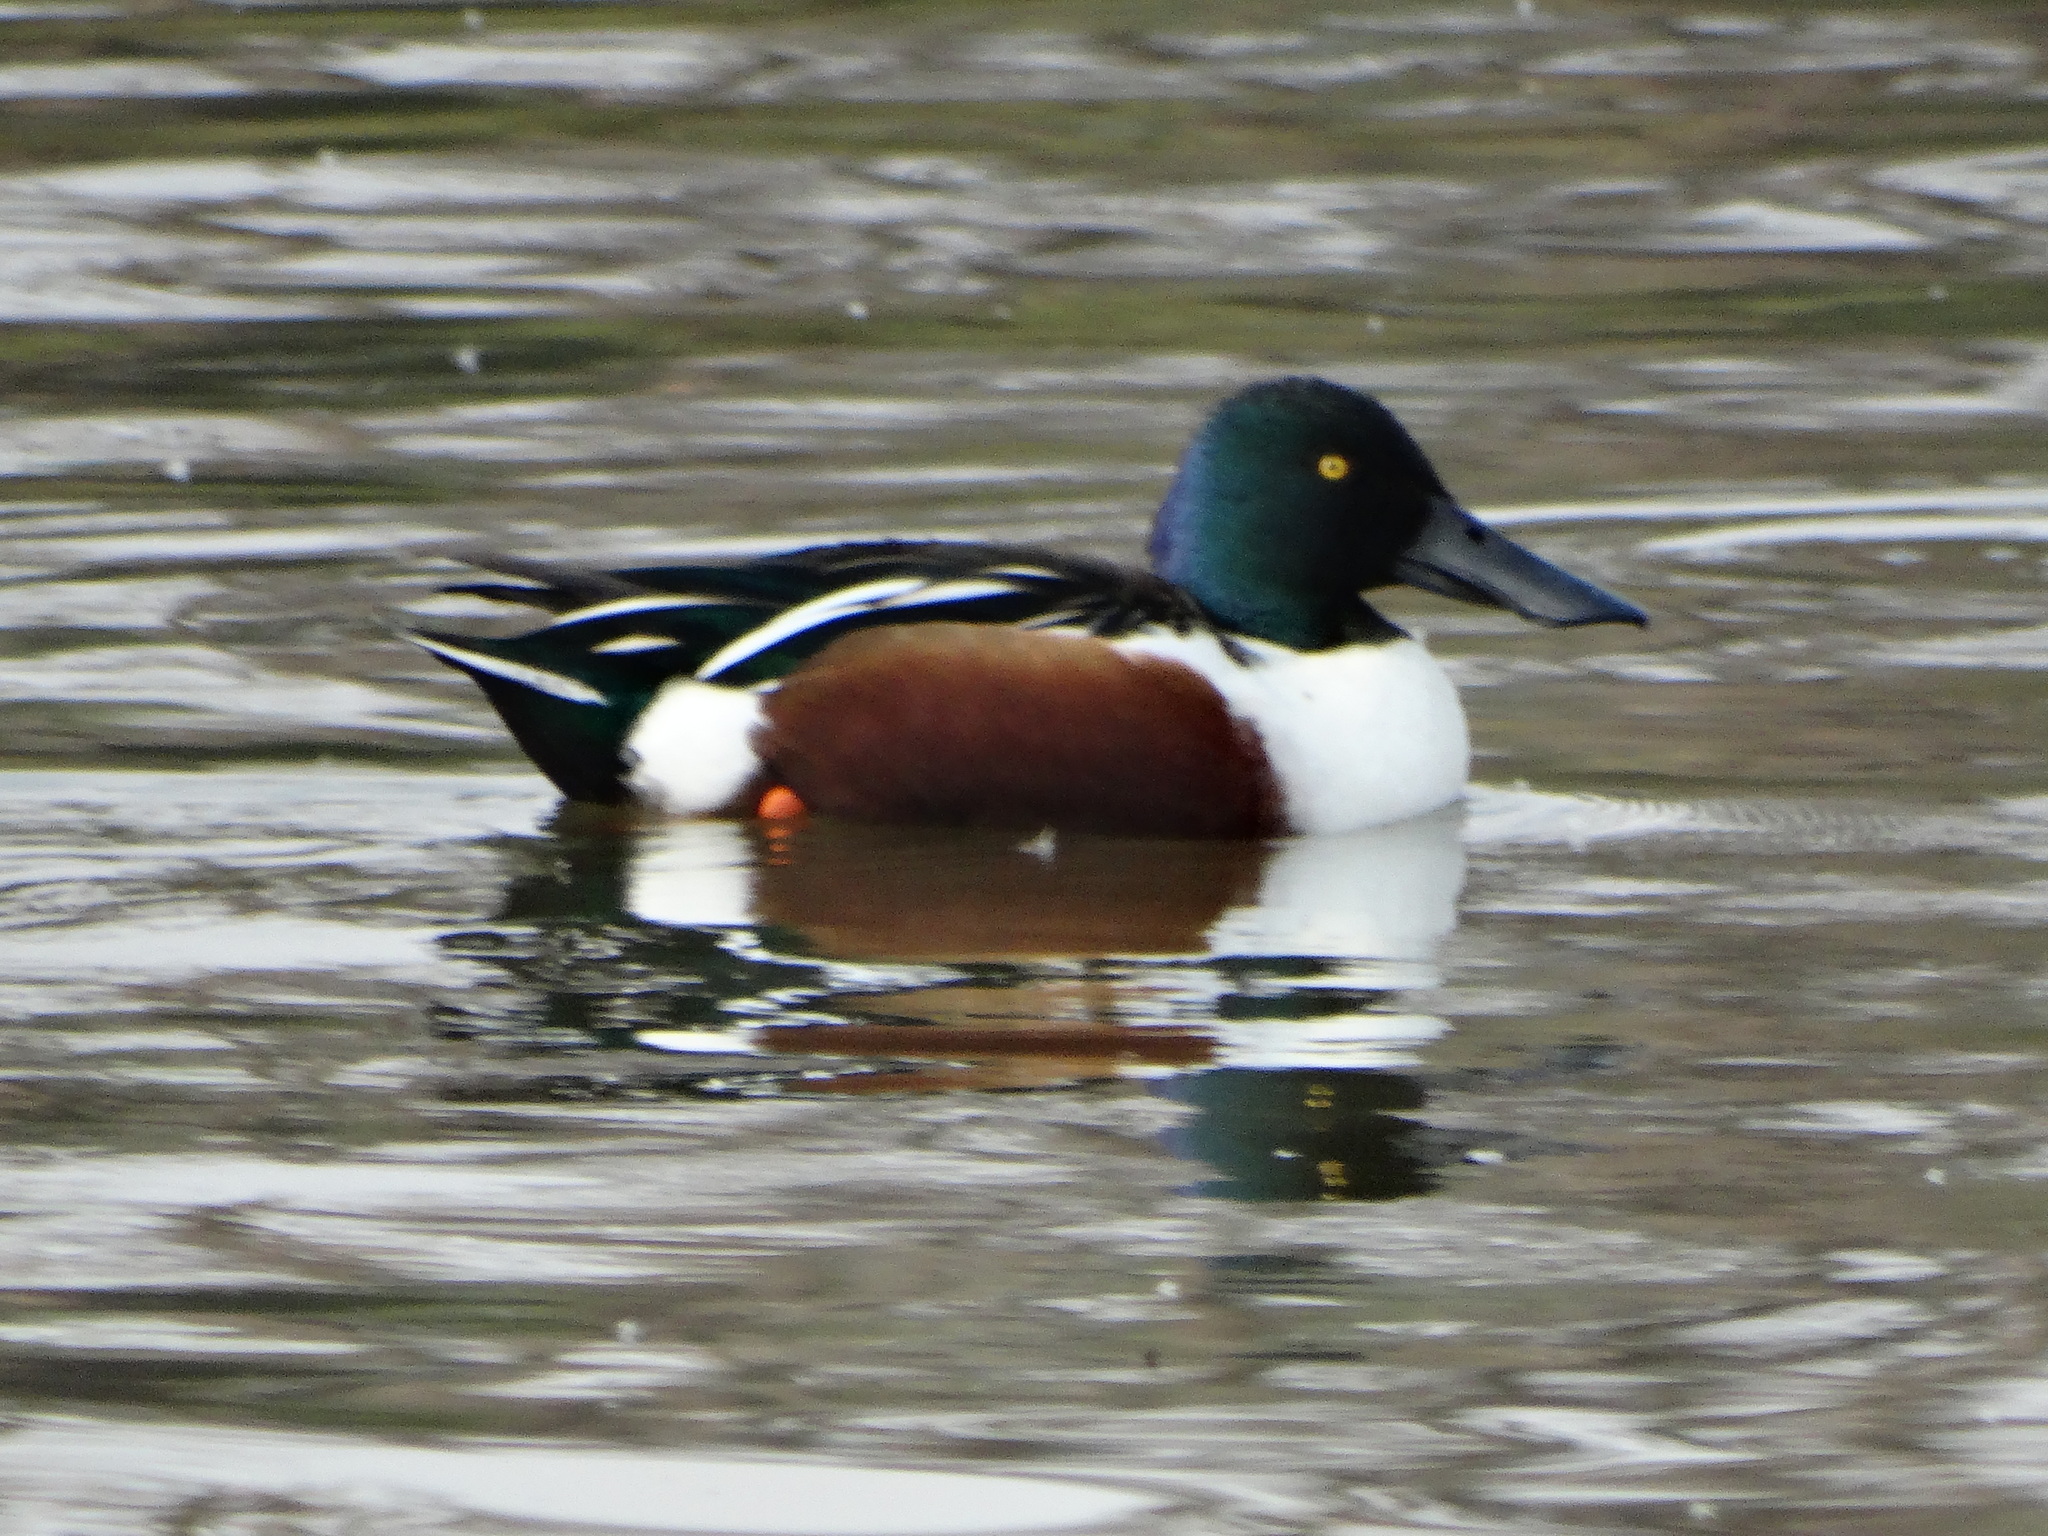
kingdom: Animalia
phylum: Chordata
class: Aves
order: Anseriformes
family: Anatidae
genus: Spatula
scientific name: Spatula clypeata
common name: Northern shoveler
